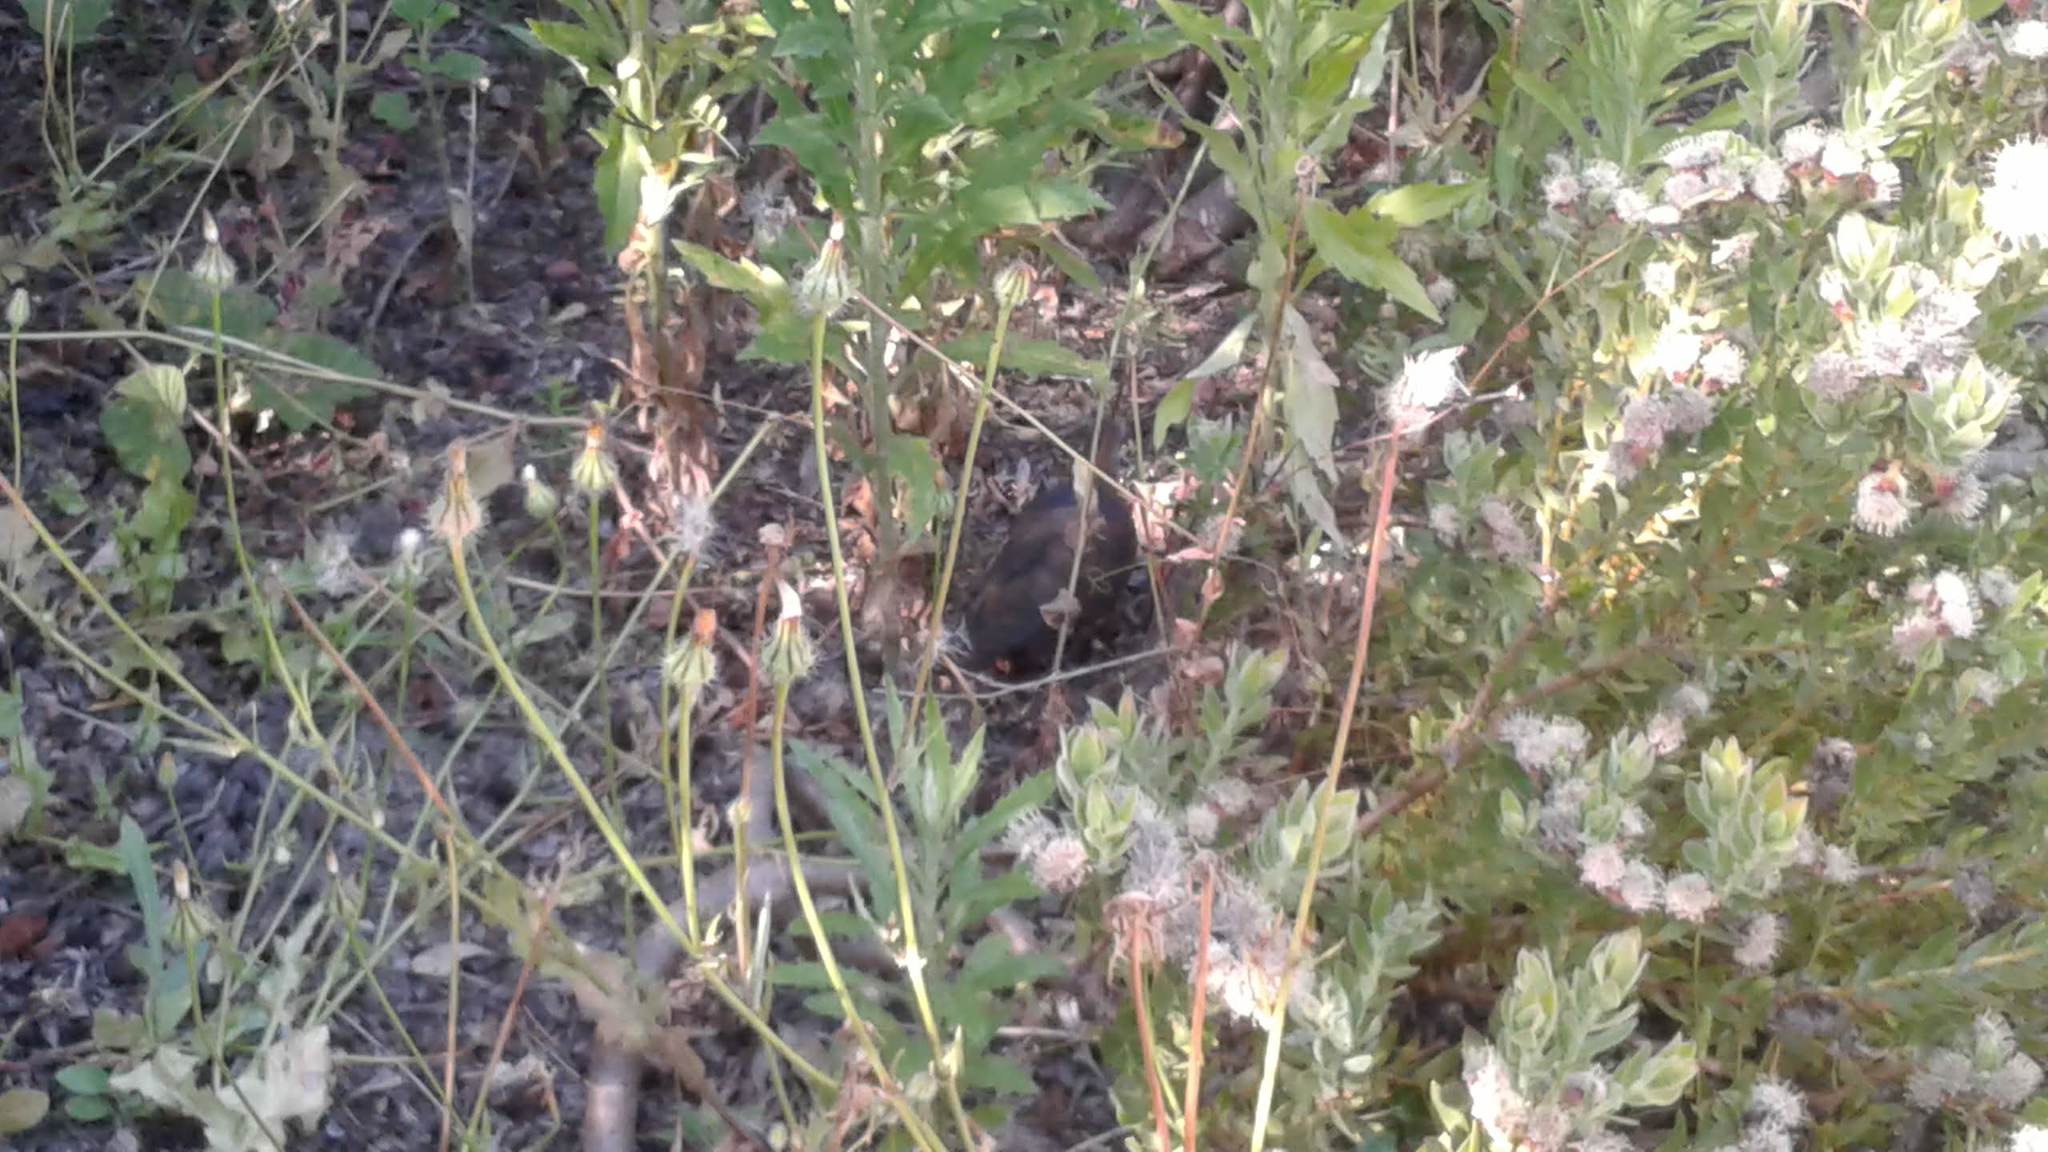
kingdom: Animalia
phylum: Chordata
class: Aves
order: Columbiformes
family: Columbidae
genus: Columba
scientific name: Columba larvata
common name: Lemon dove
